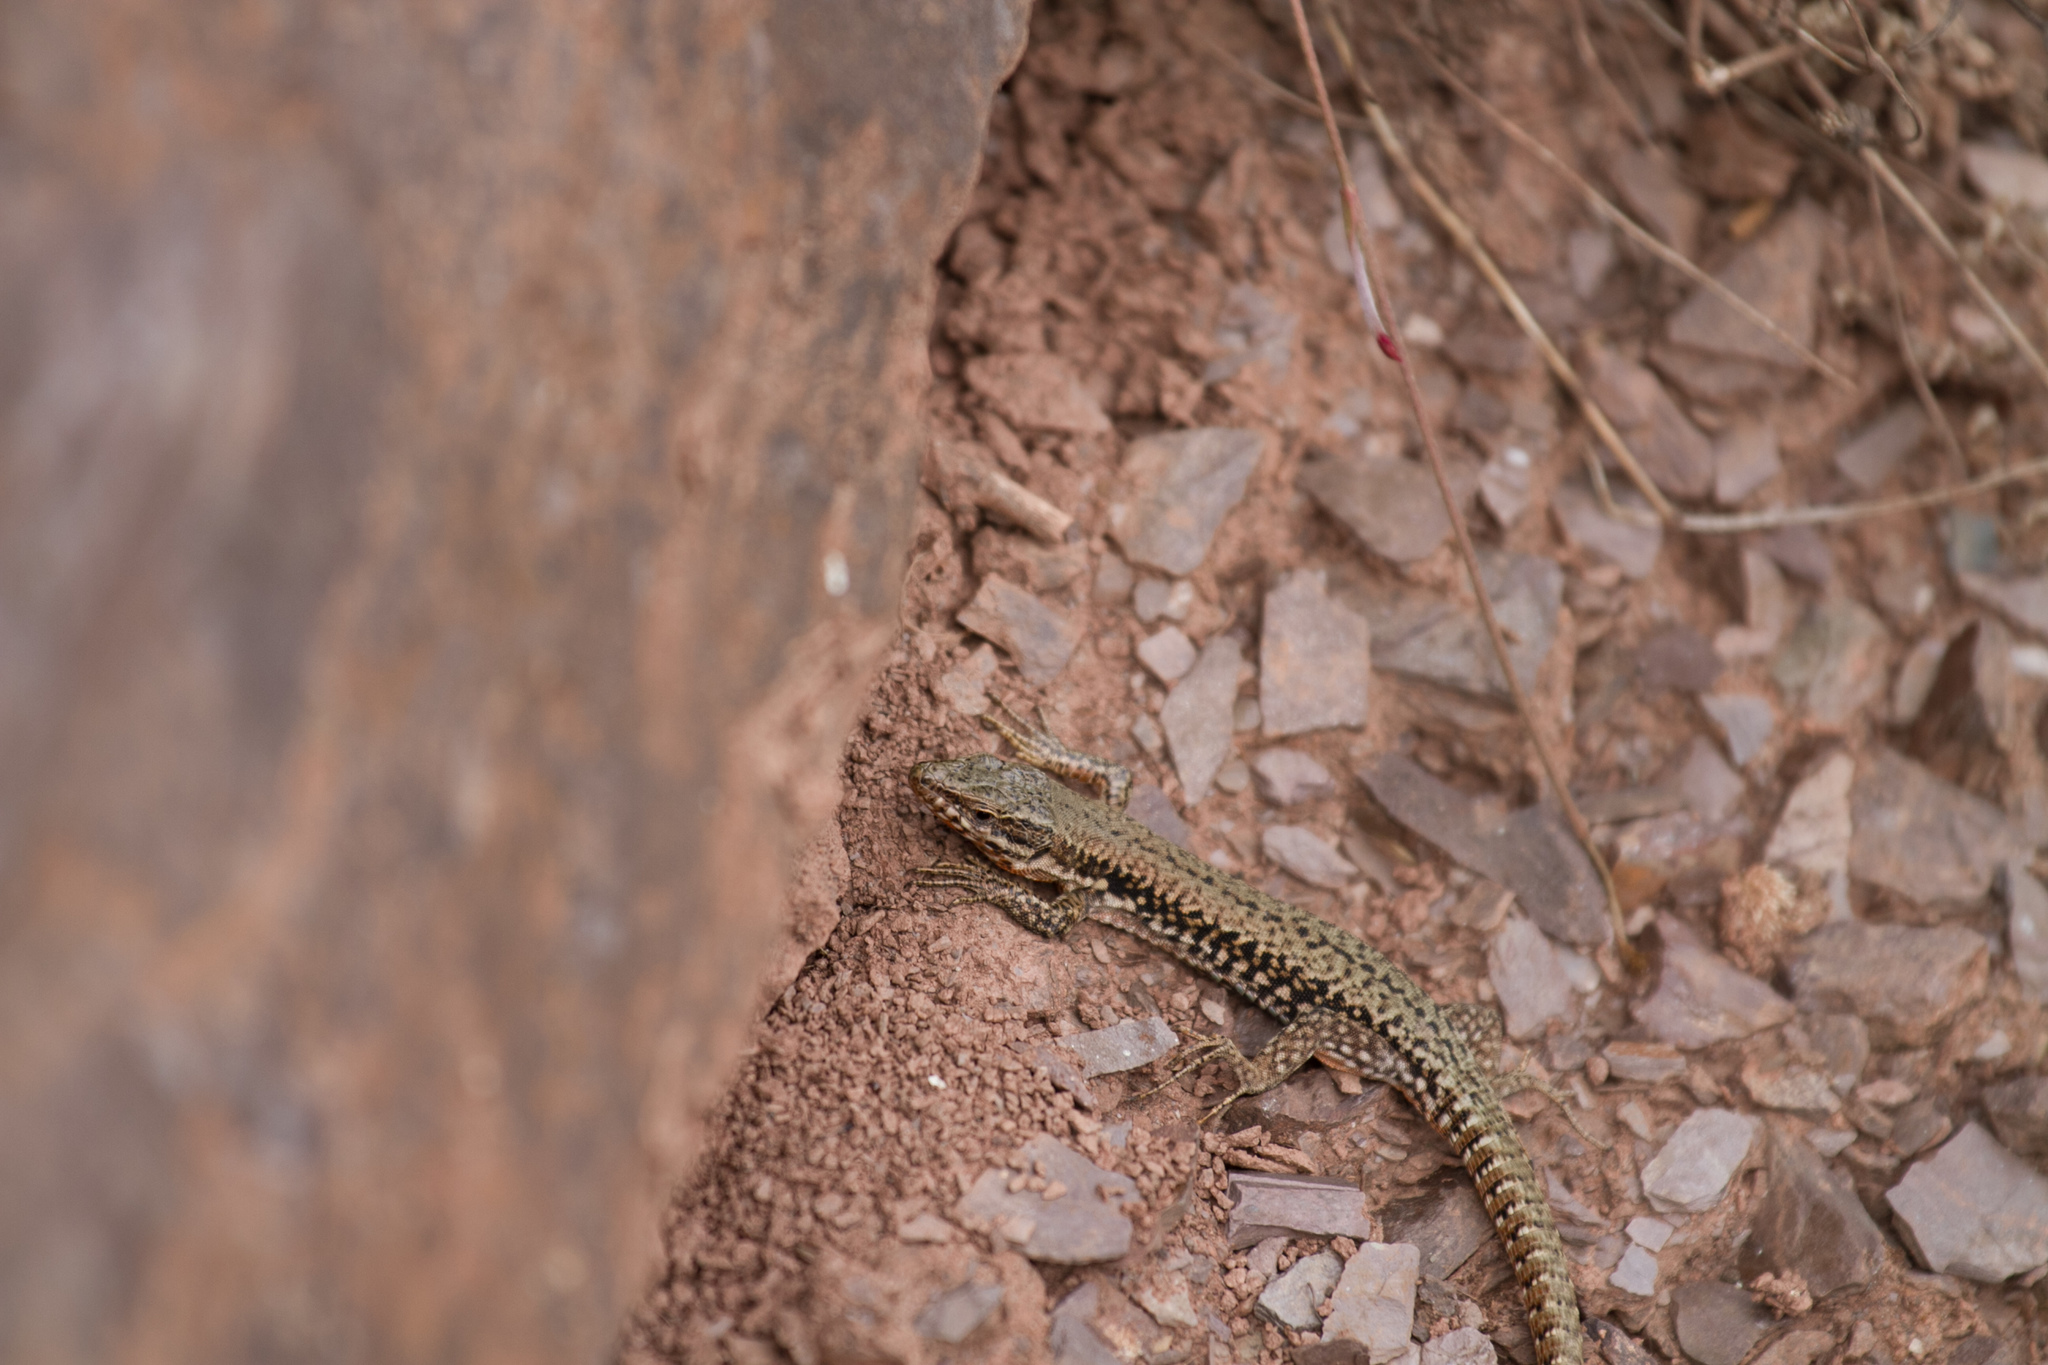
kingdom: Animalia
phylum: Chordata
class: Squamata
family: Lacertidae
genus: Podarcis
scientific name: Podarcis muralis
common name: Common wall lizard
